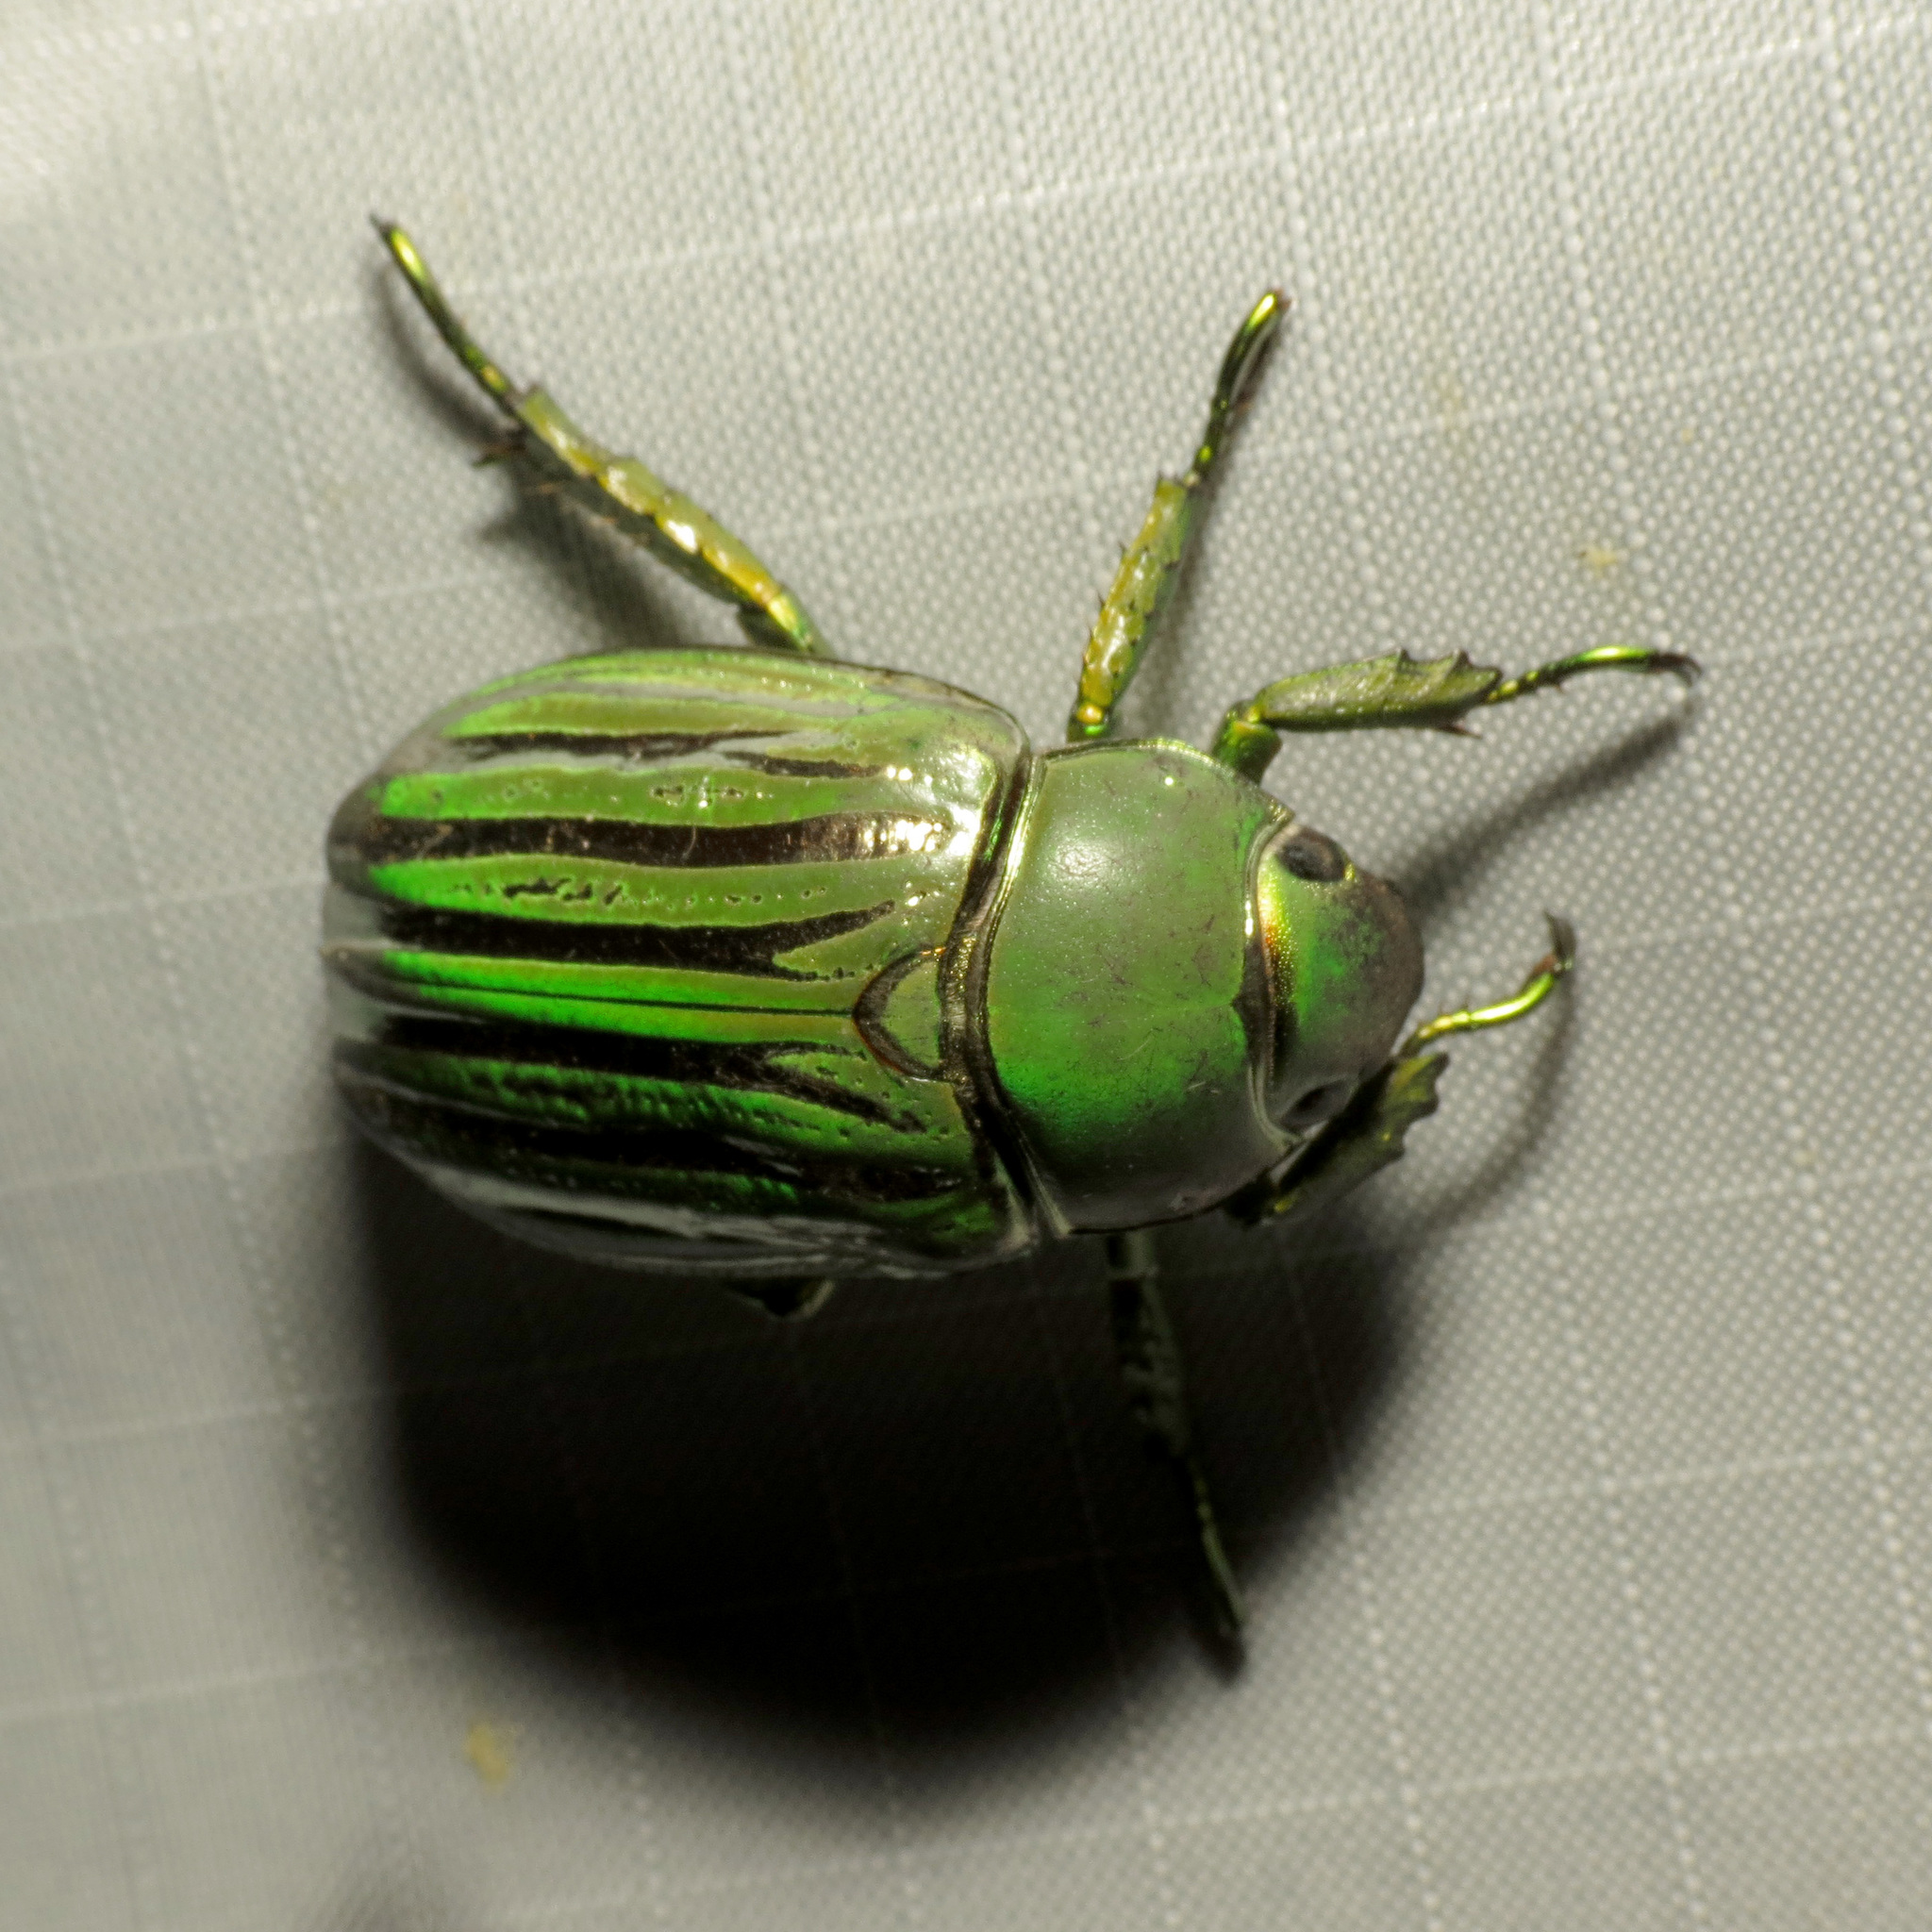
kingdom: Animalia
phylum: Arthropoda
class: Insecta
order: Coleoptera
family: Scarabaeidae
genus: Chrysina
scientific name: Chrysina gloriosa
